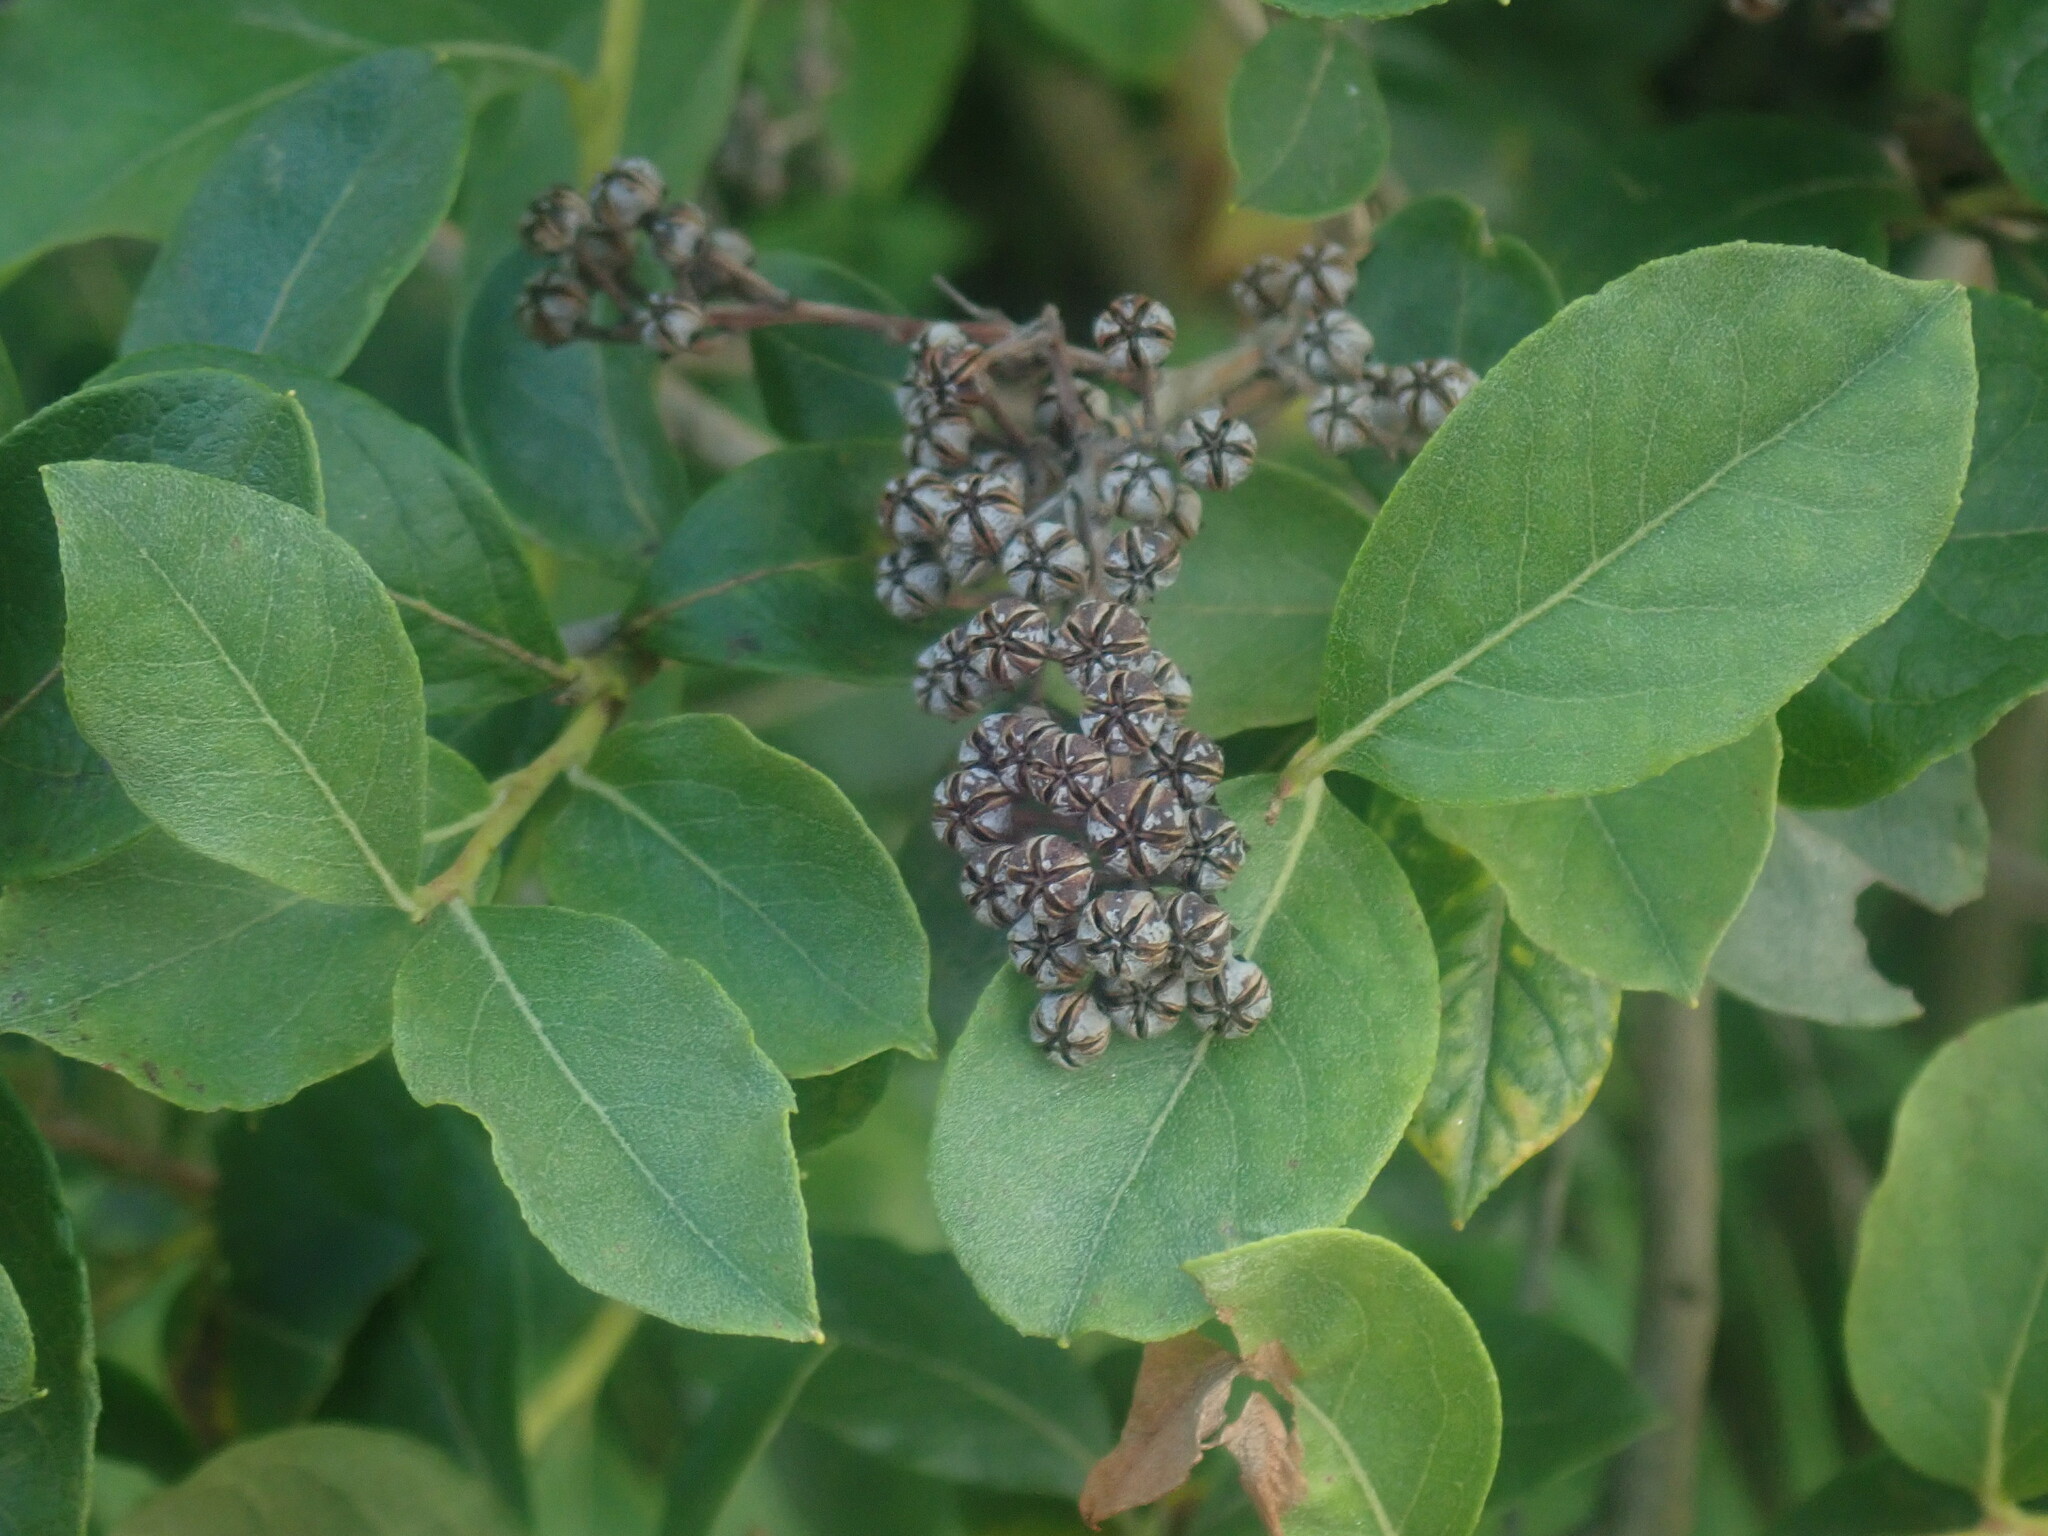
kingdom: Plantae
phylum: Tracheophyta
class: Magnoliopsida
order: Ericales
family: Ericaceae
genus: Lyonia
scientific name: Lyonia ligustrina
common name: Maleberry
